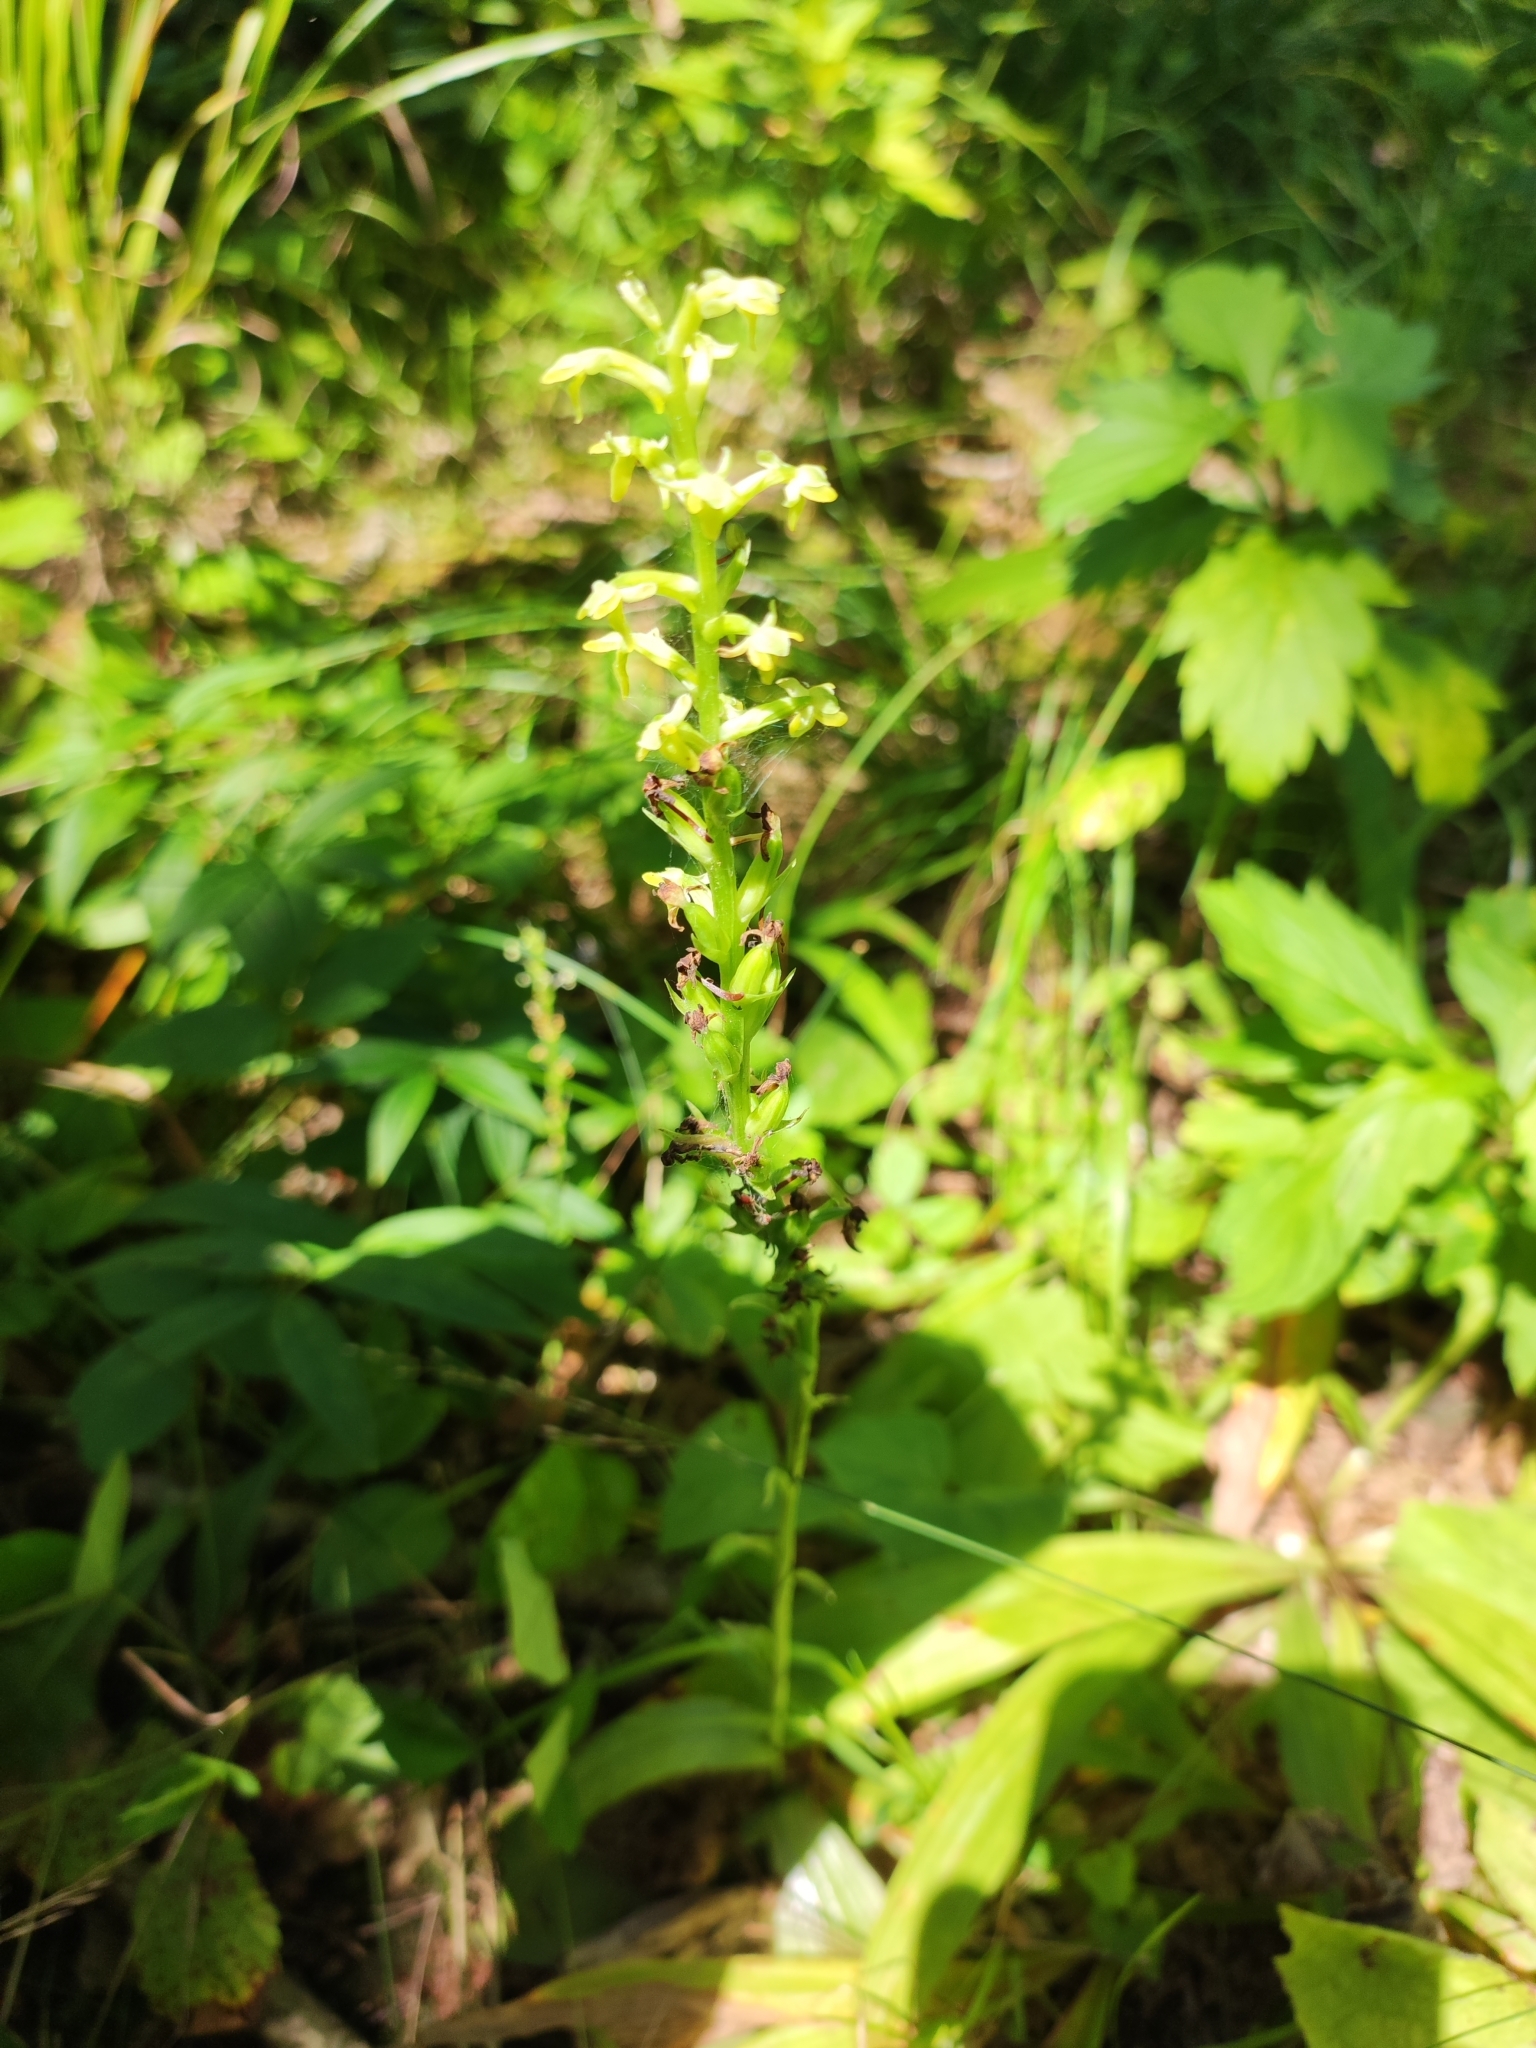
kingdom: Plantae
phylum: Tracheophyta
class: Liliopsida
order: Asparagales
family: Orchidaceae
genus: Platanthera
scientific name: Platanthera ussuriensis
